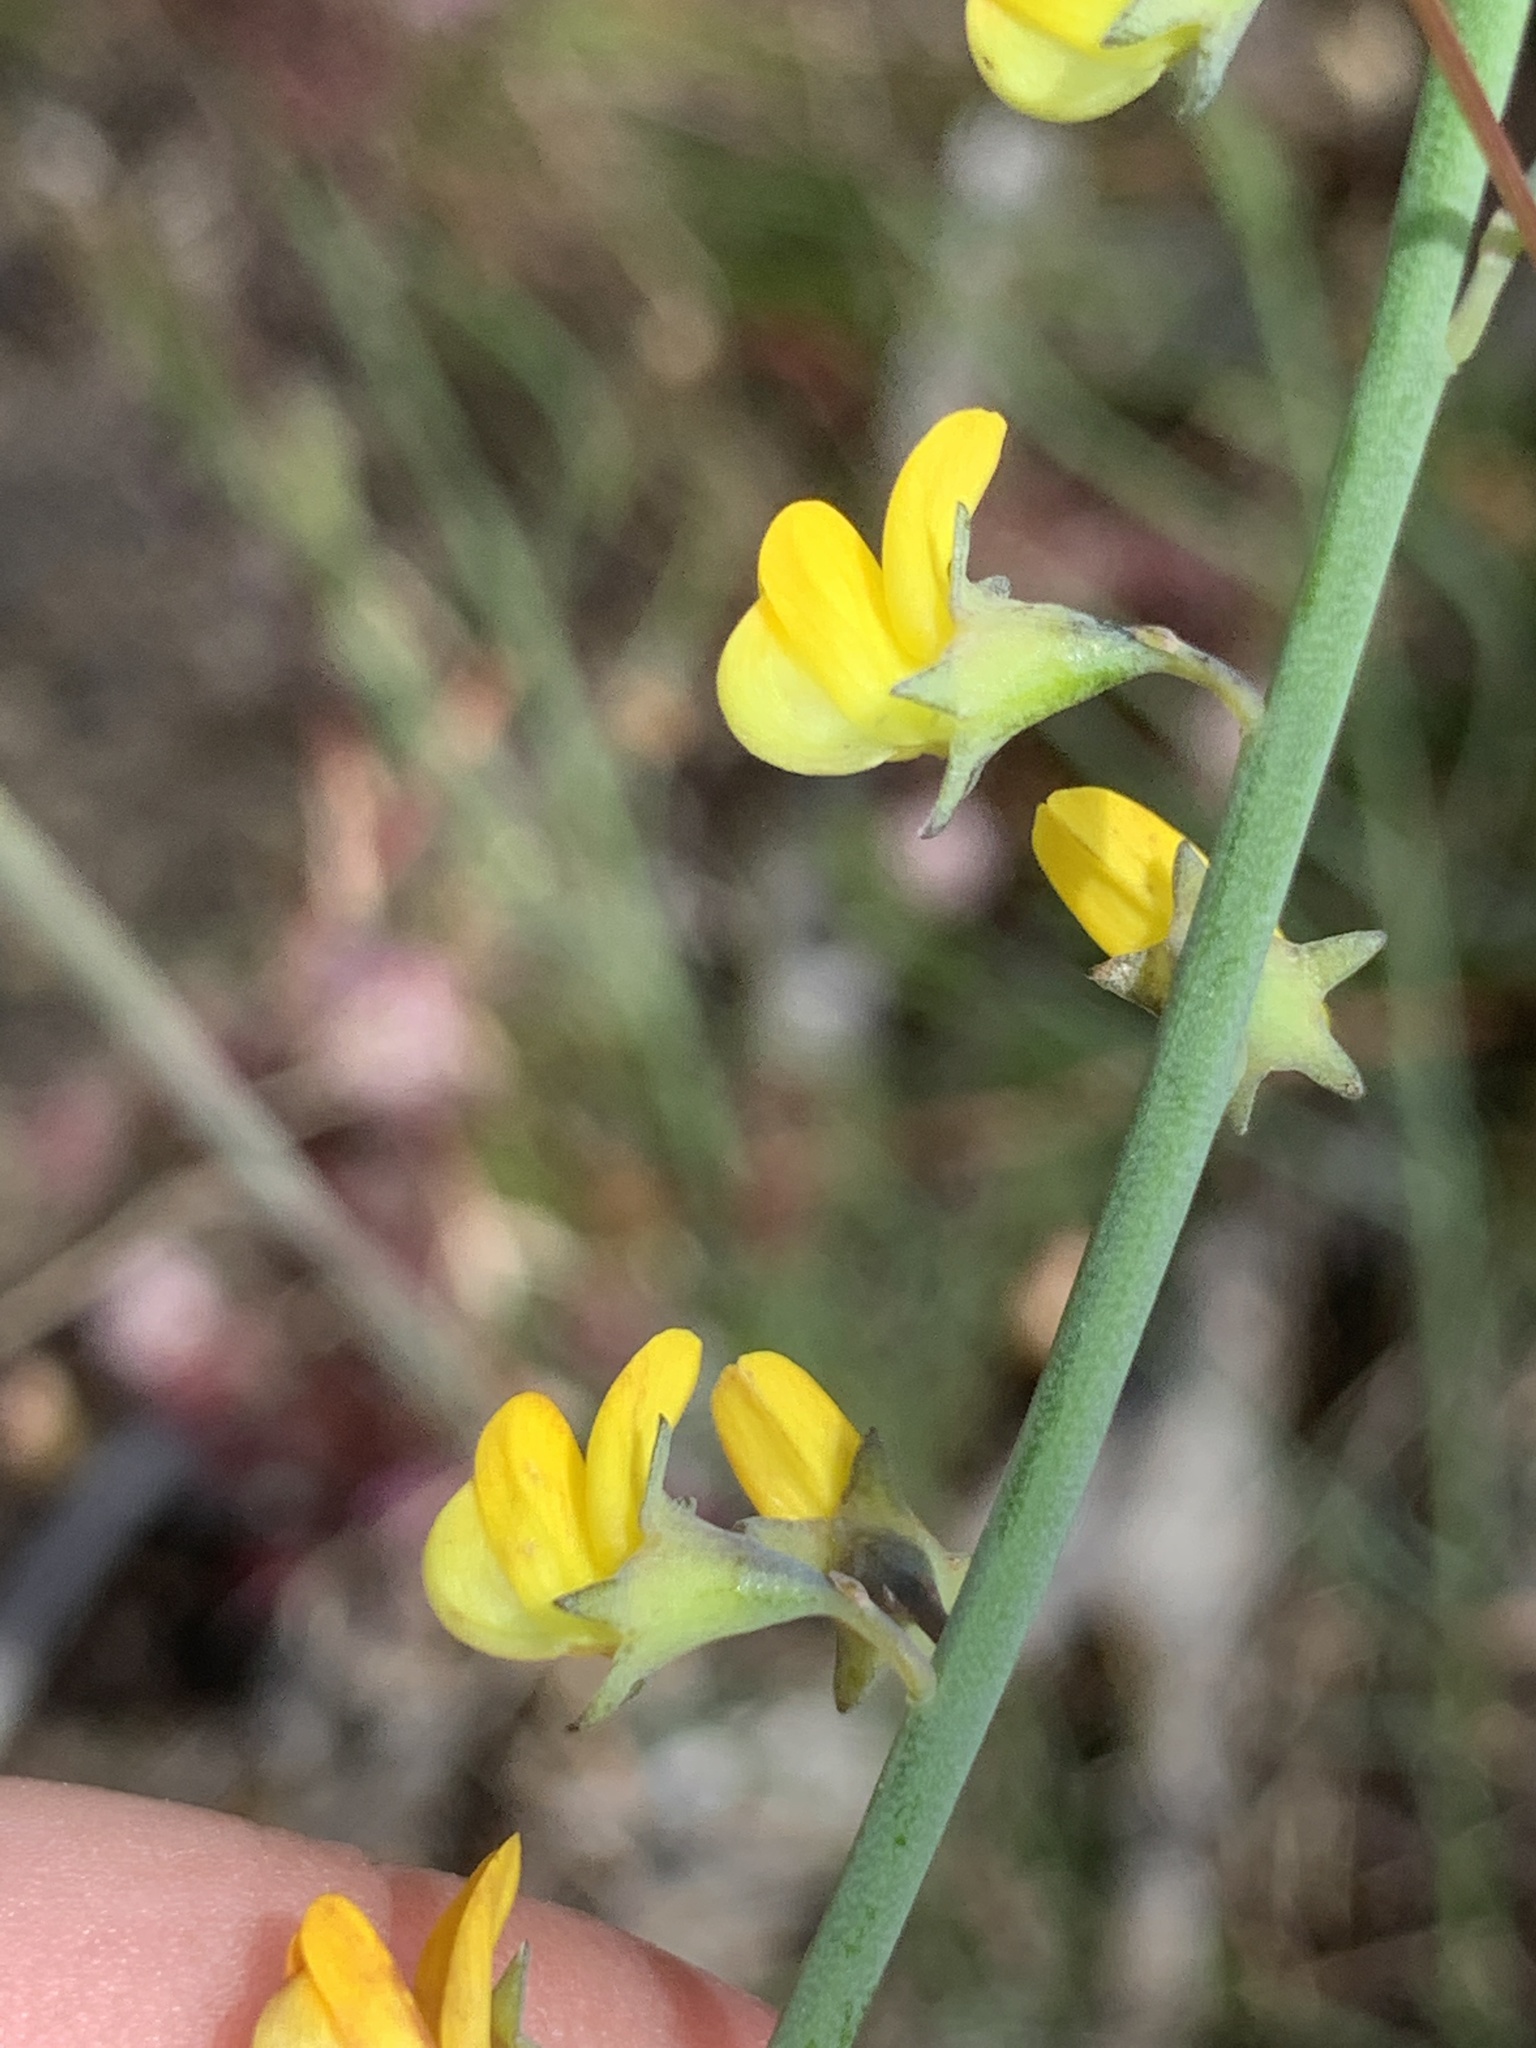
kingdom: Plantae
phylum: Tracheophyta
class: Magnoliopsida
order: Fabales
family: Fabaceae
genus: Lebeckia
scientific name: Lebeckia contaminata
